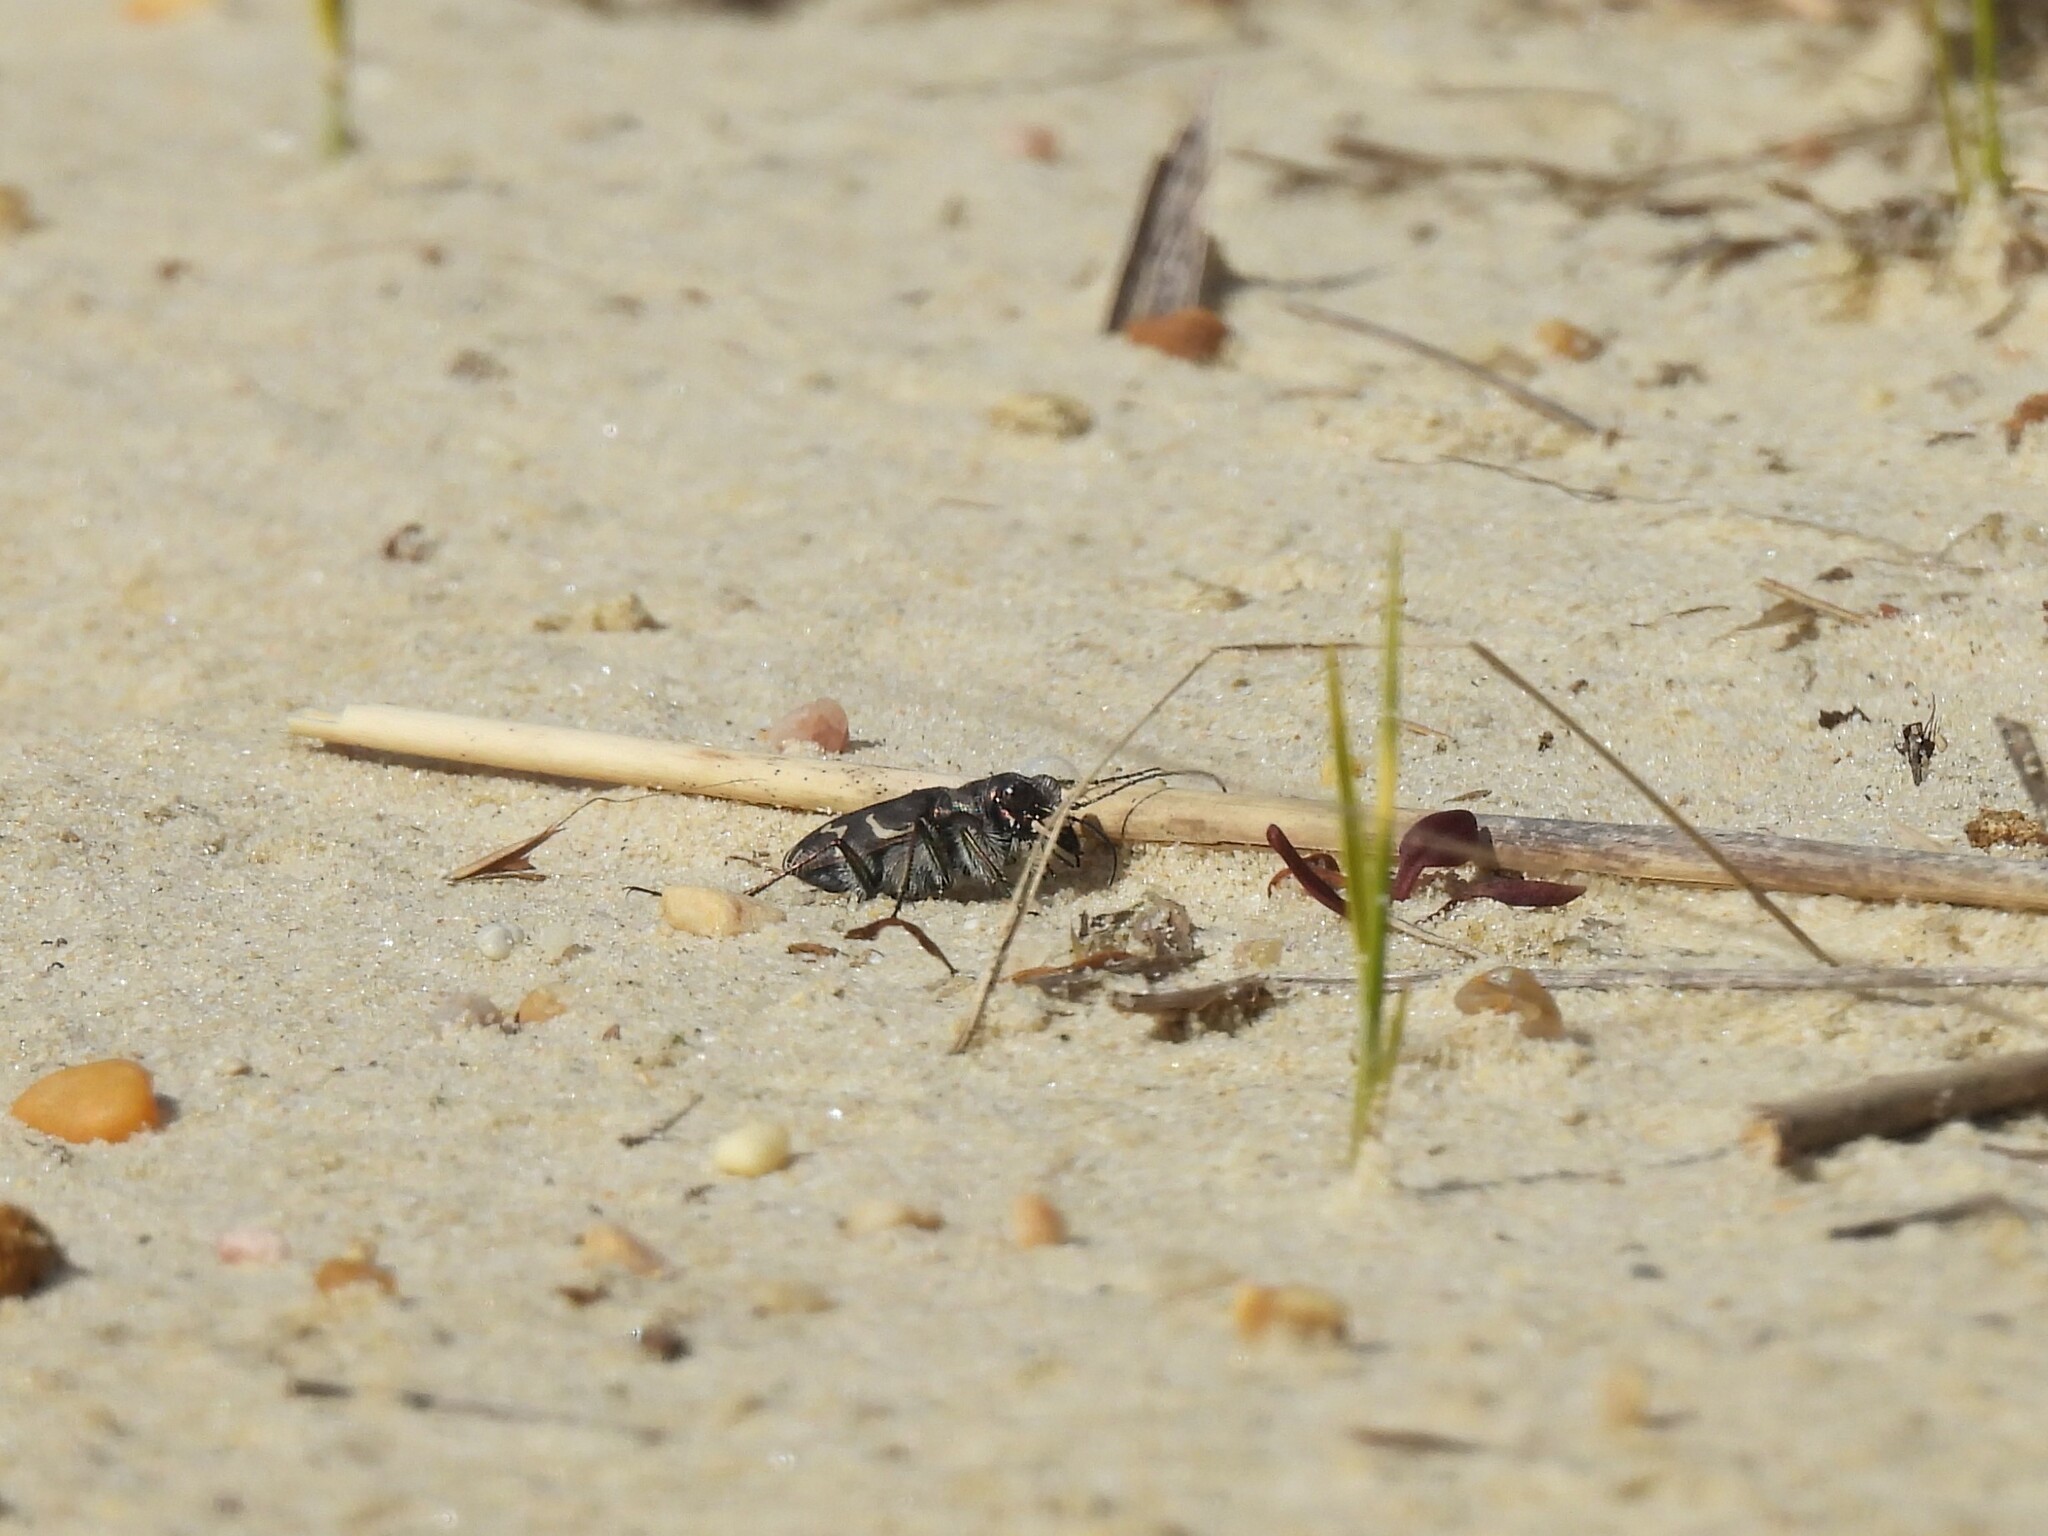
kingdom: Animalia
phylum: Arthropoda
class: Insecta
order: Coleoptera
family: Carabidae
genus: Cicindela
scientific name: Cicindela tranquebarica
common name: Oblique-lined tiger beetle
